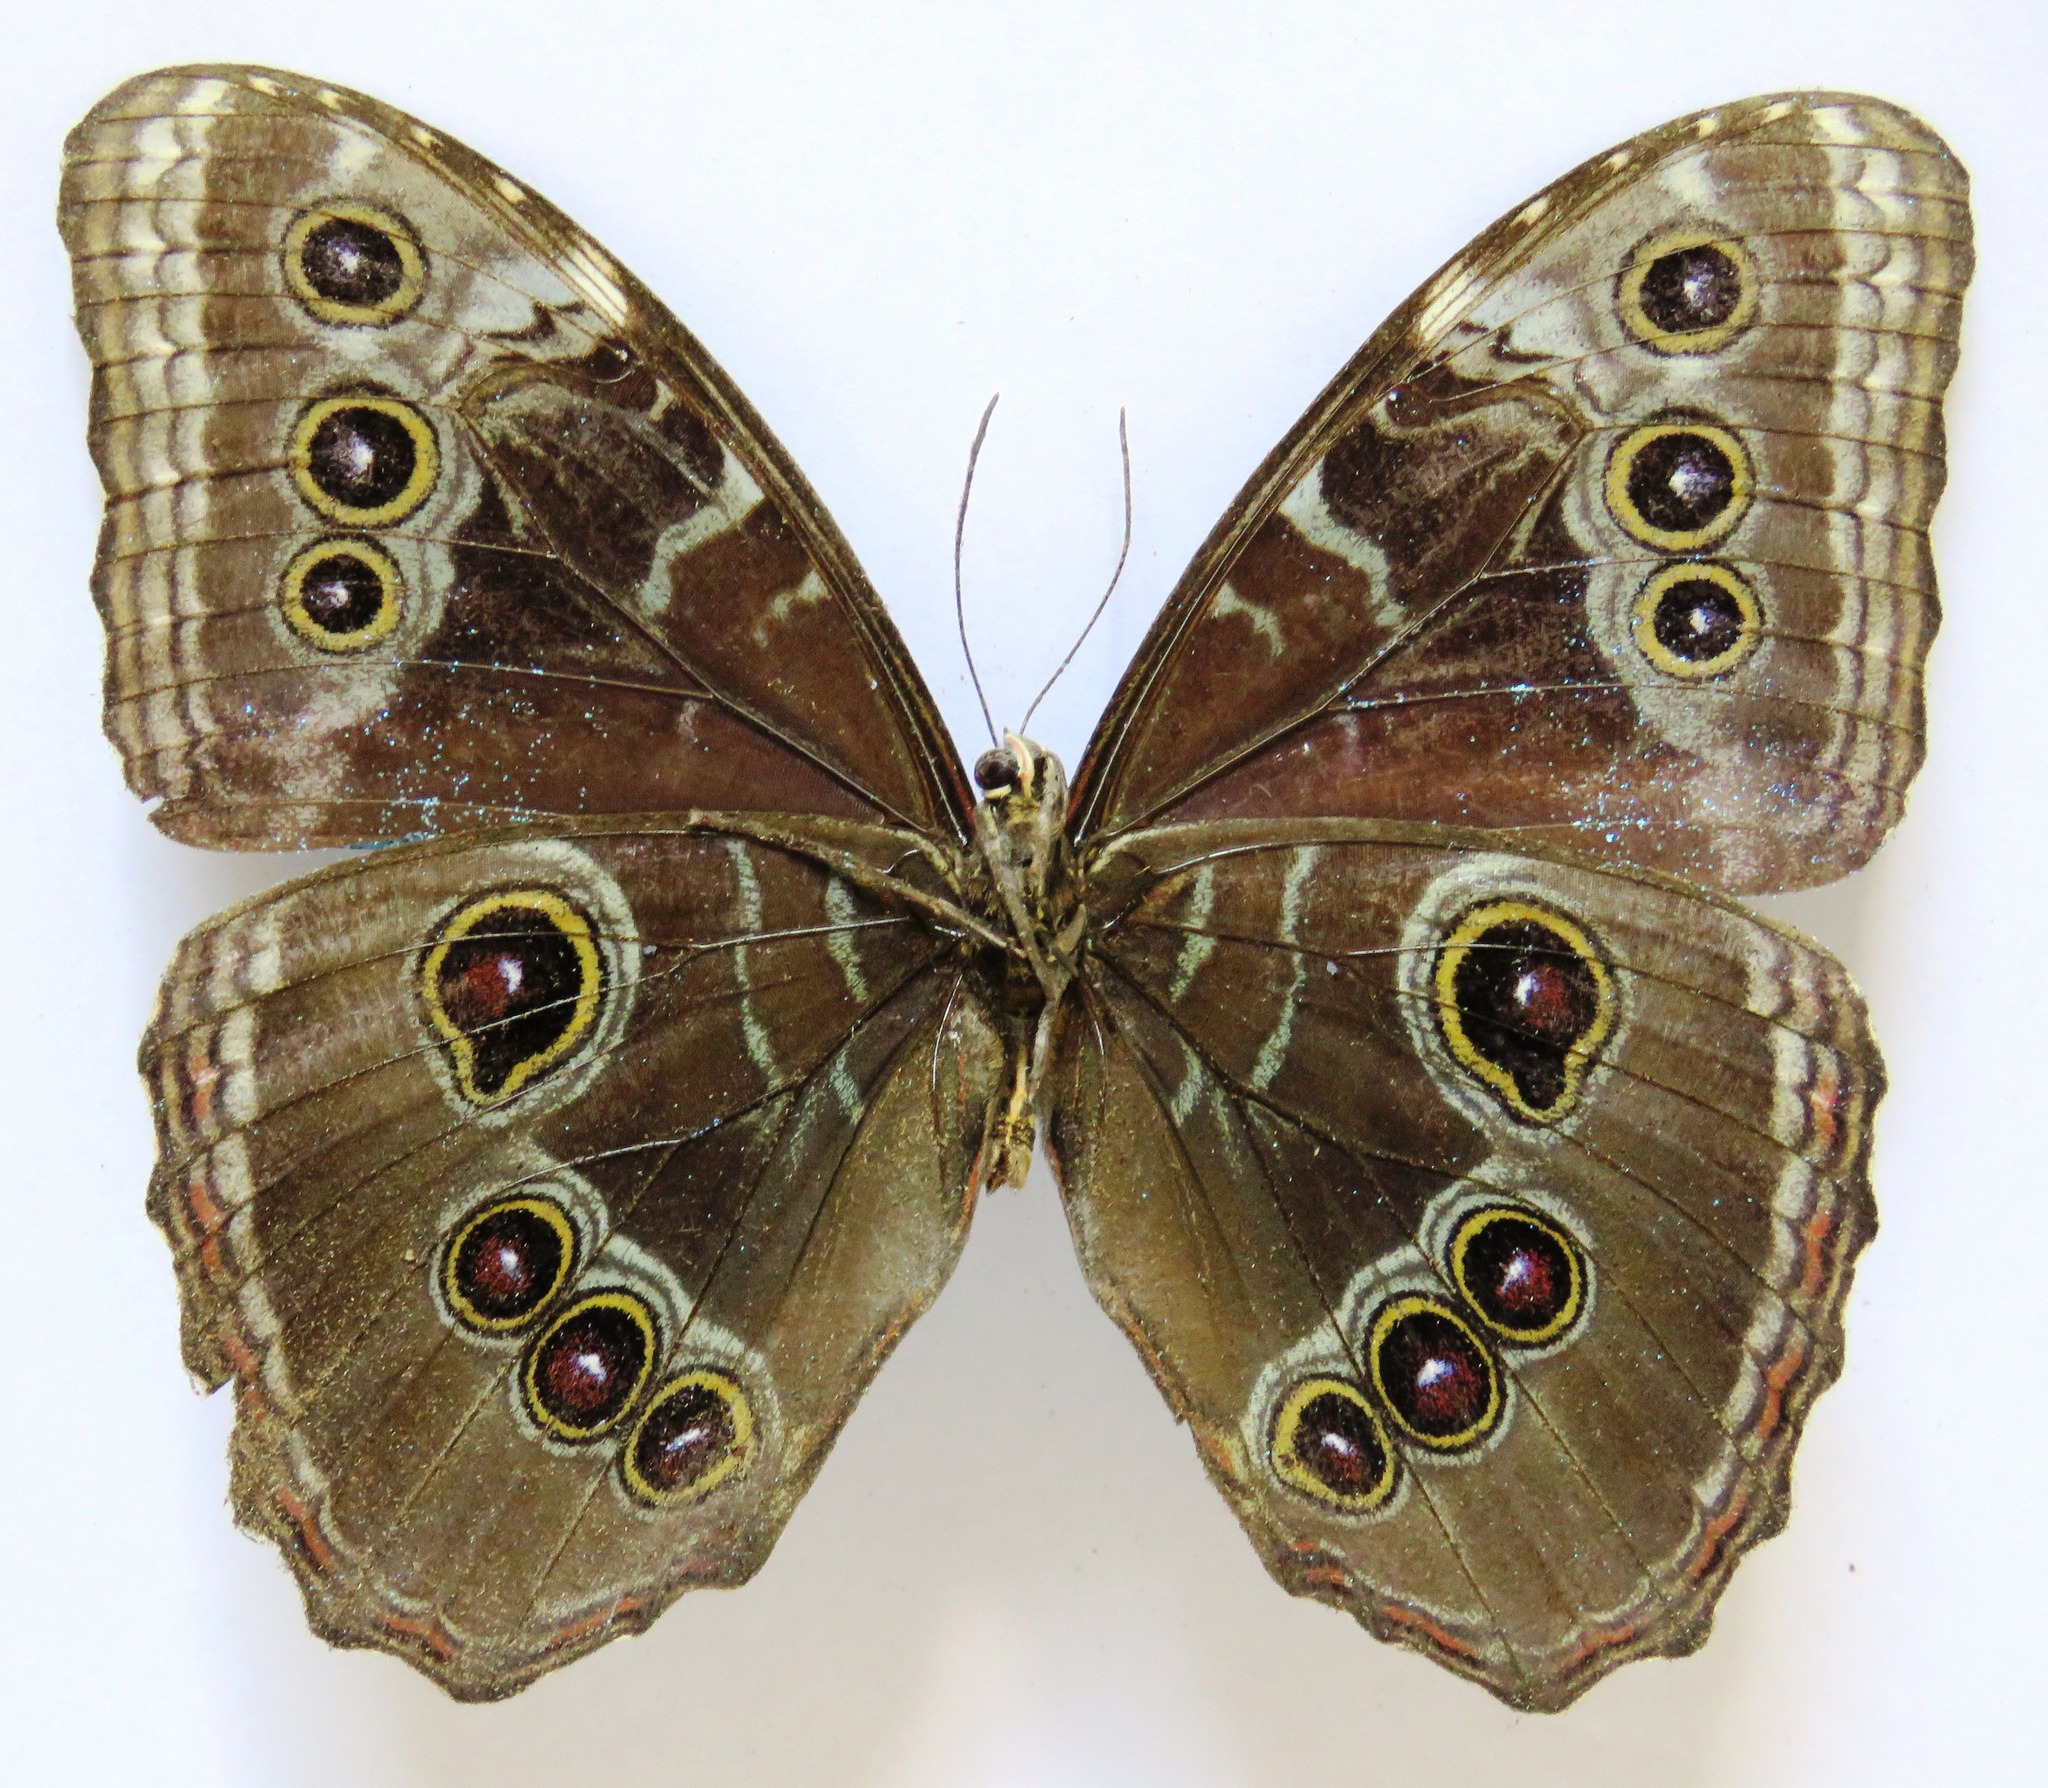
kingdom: Animalia
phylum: Arthropoda
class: Insecta
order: Lepidoptera
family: Nymphalidae
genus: Morpho
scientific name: Morpho helenor
